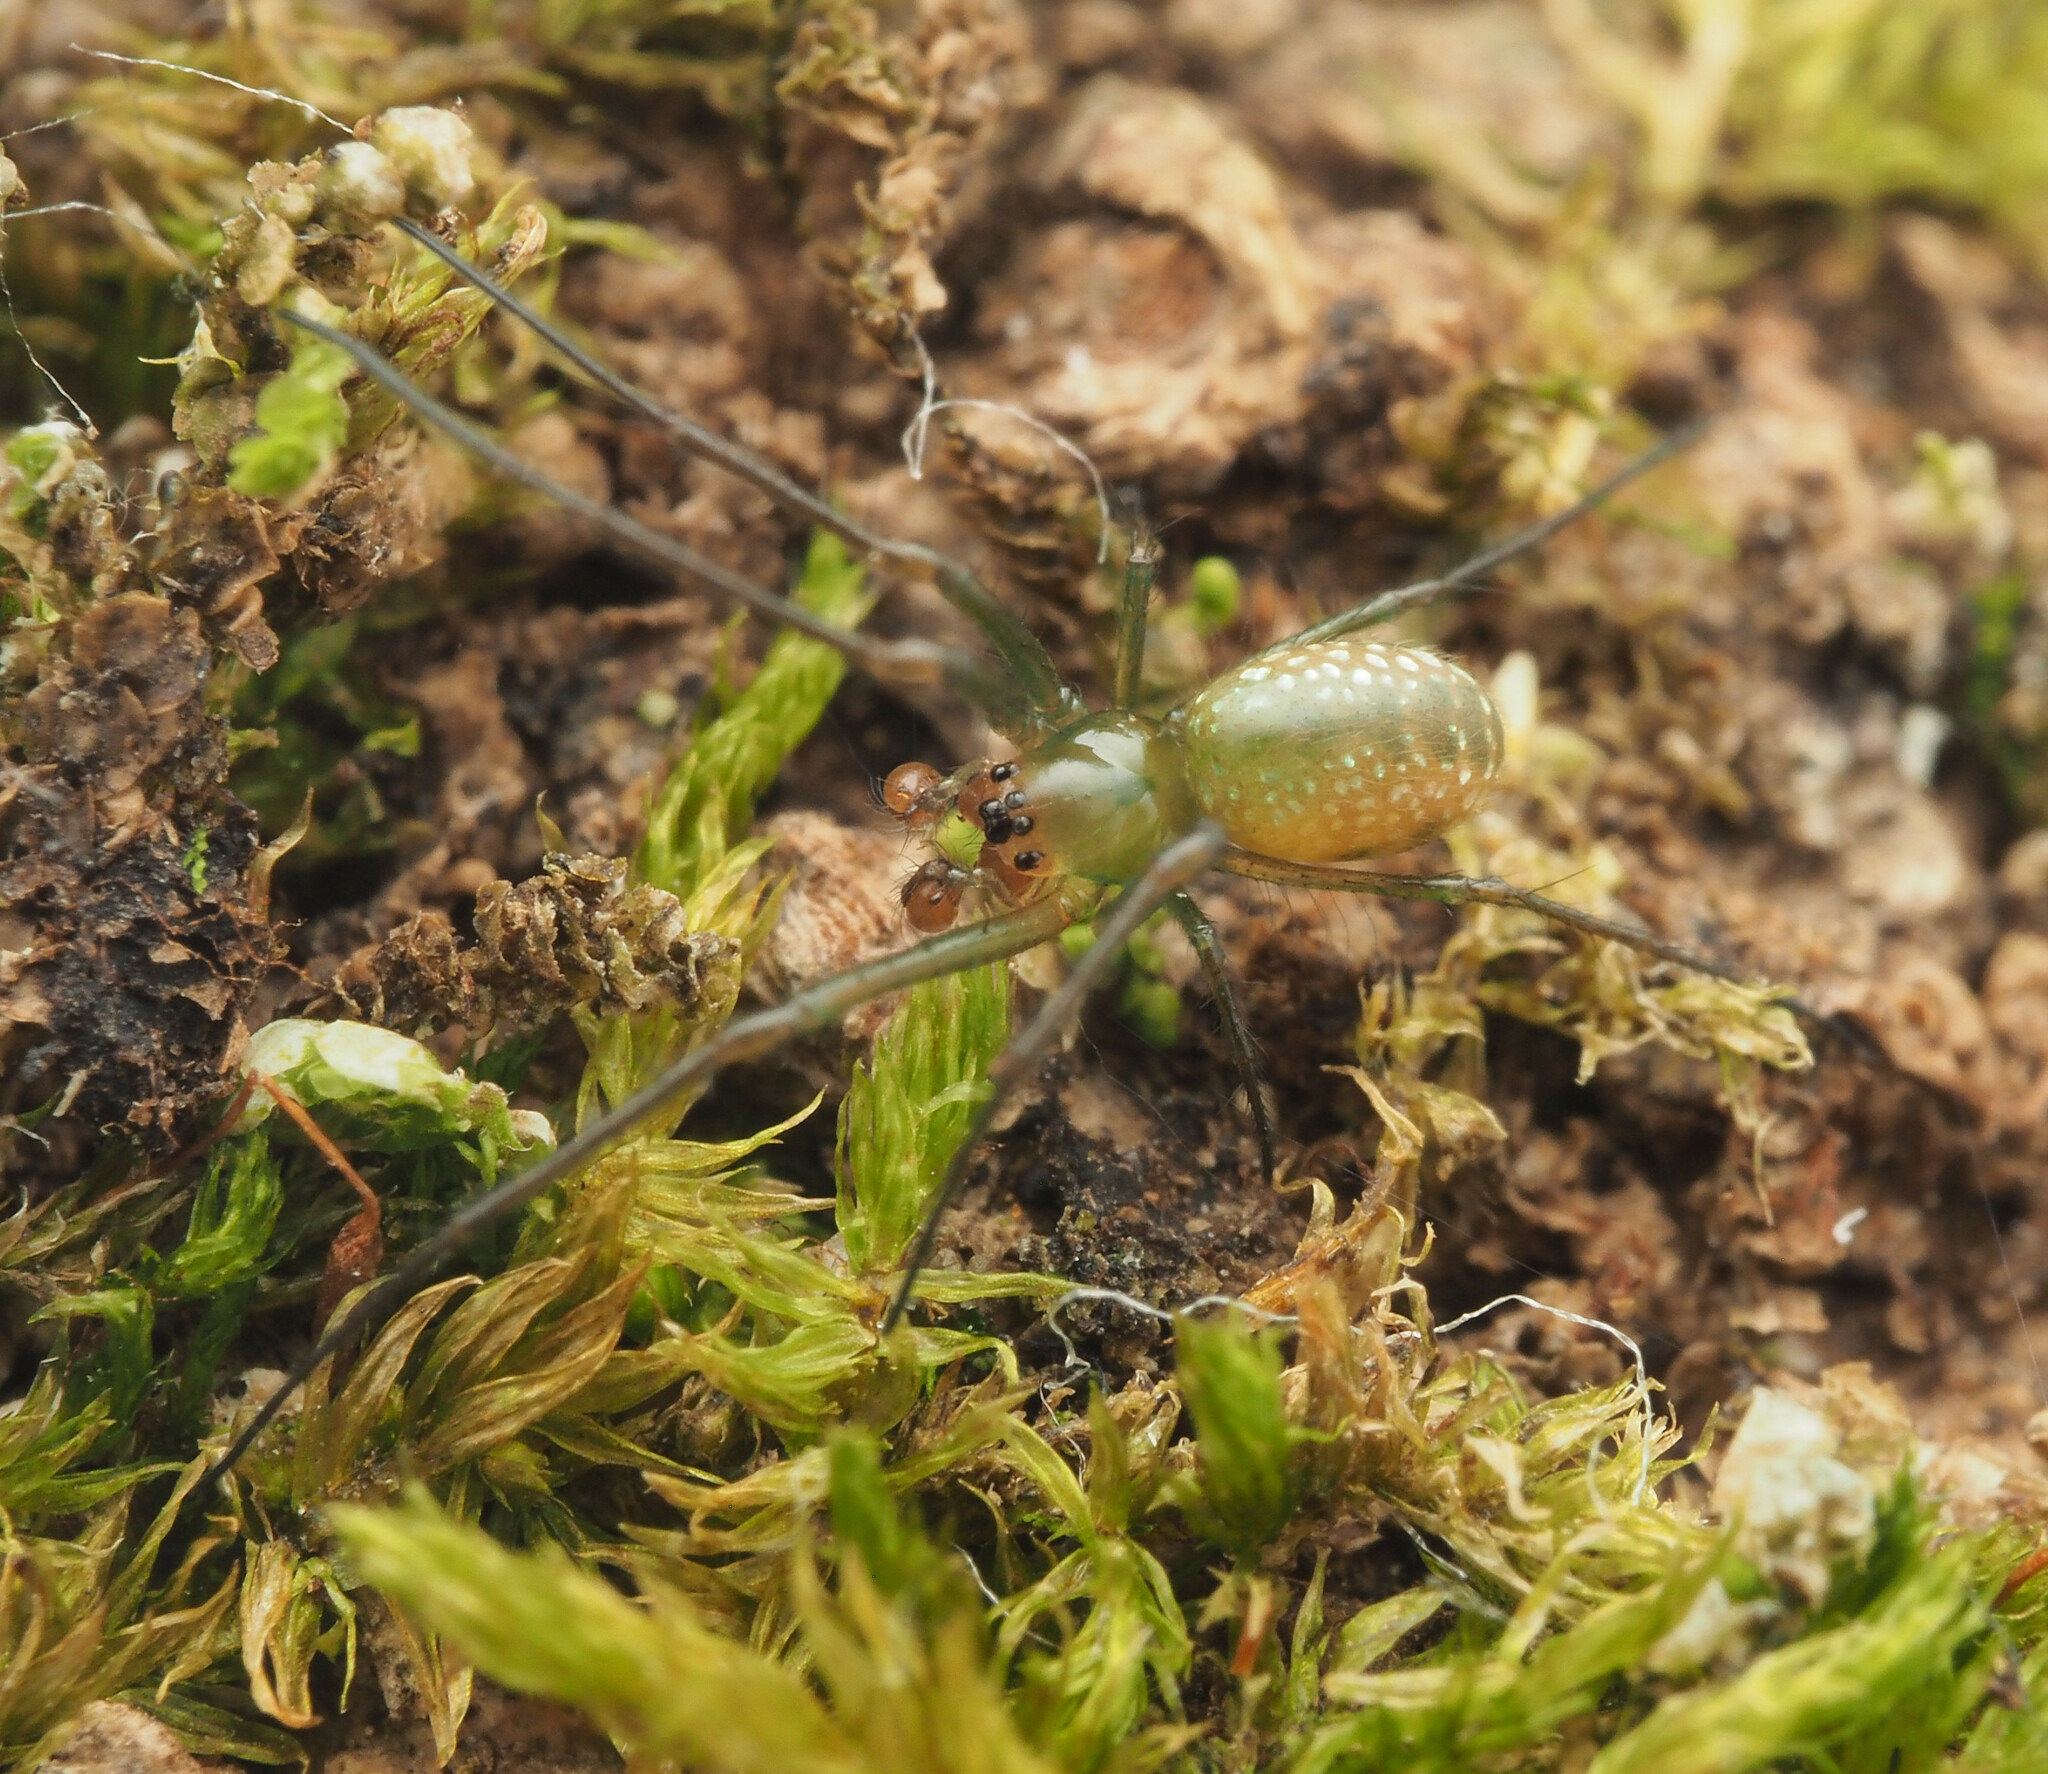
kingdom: Animalia
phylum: Arthropoda
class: Arachnida
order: Araneae
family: Tetragnathidae
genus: Mesida
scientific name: Mesida argentiopunctata
